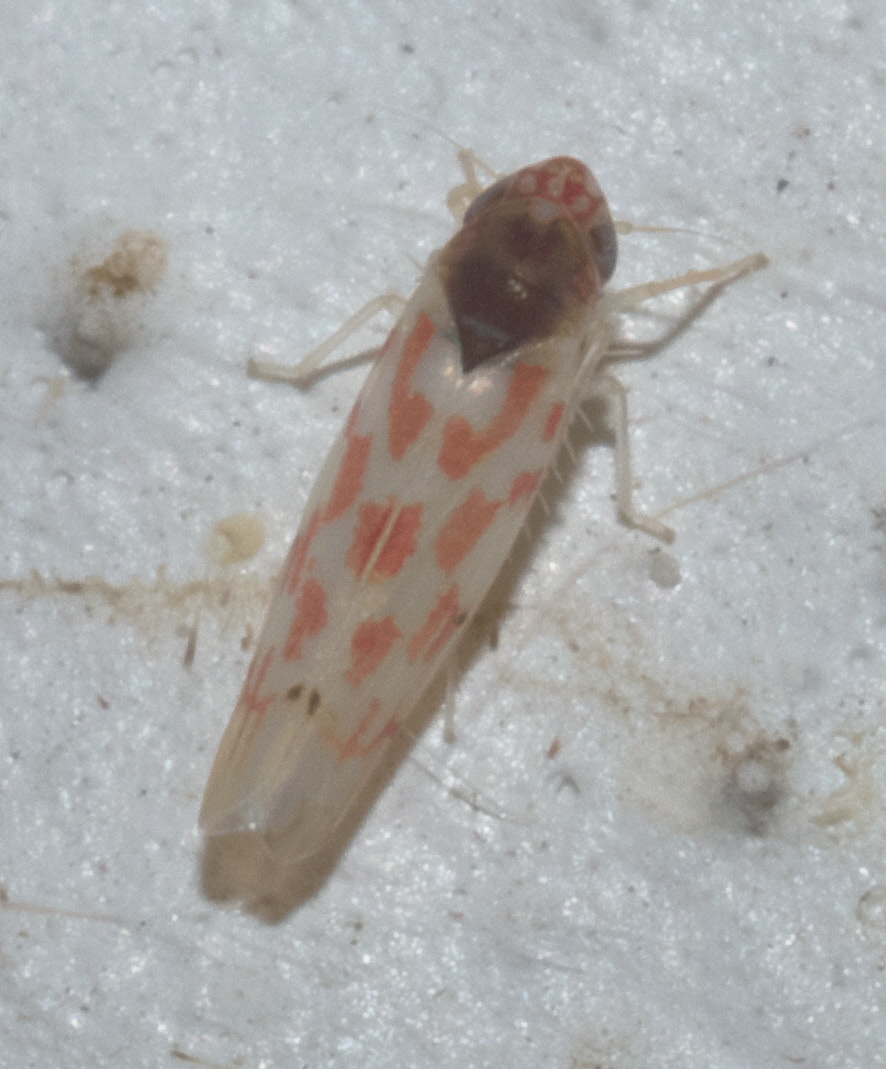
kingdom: Animalia
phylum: Arthropoda
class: Insecta
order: Hemiptera
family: Cicadellidae
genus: Eratoneura
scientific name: Eratoneura ardens
